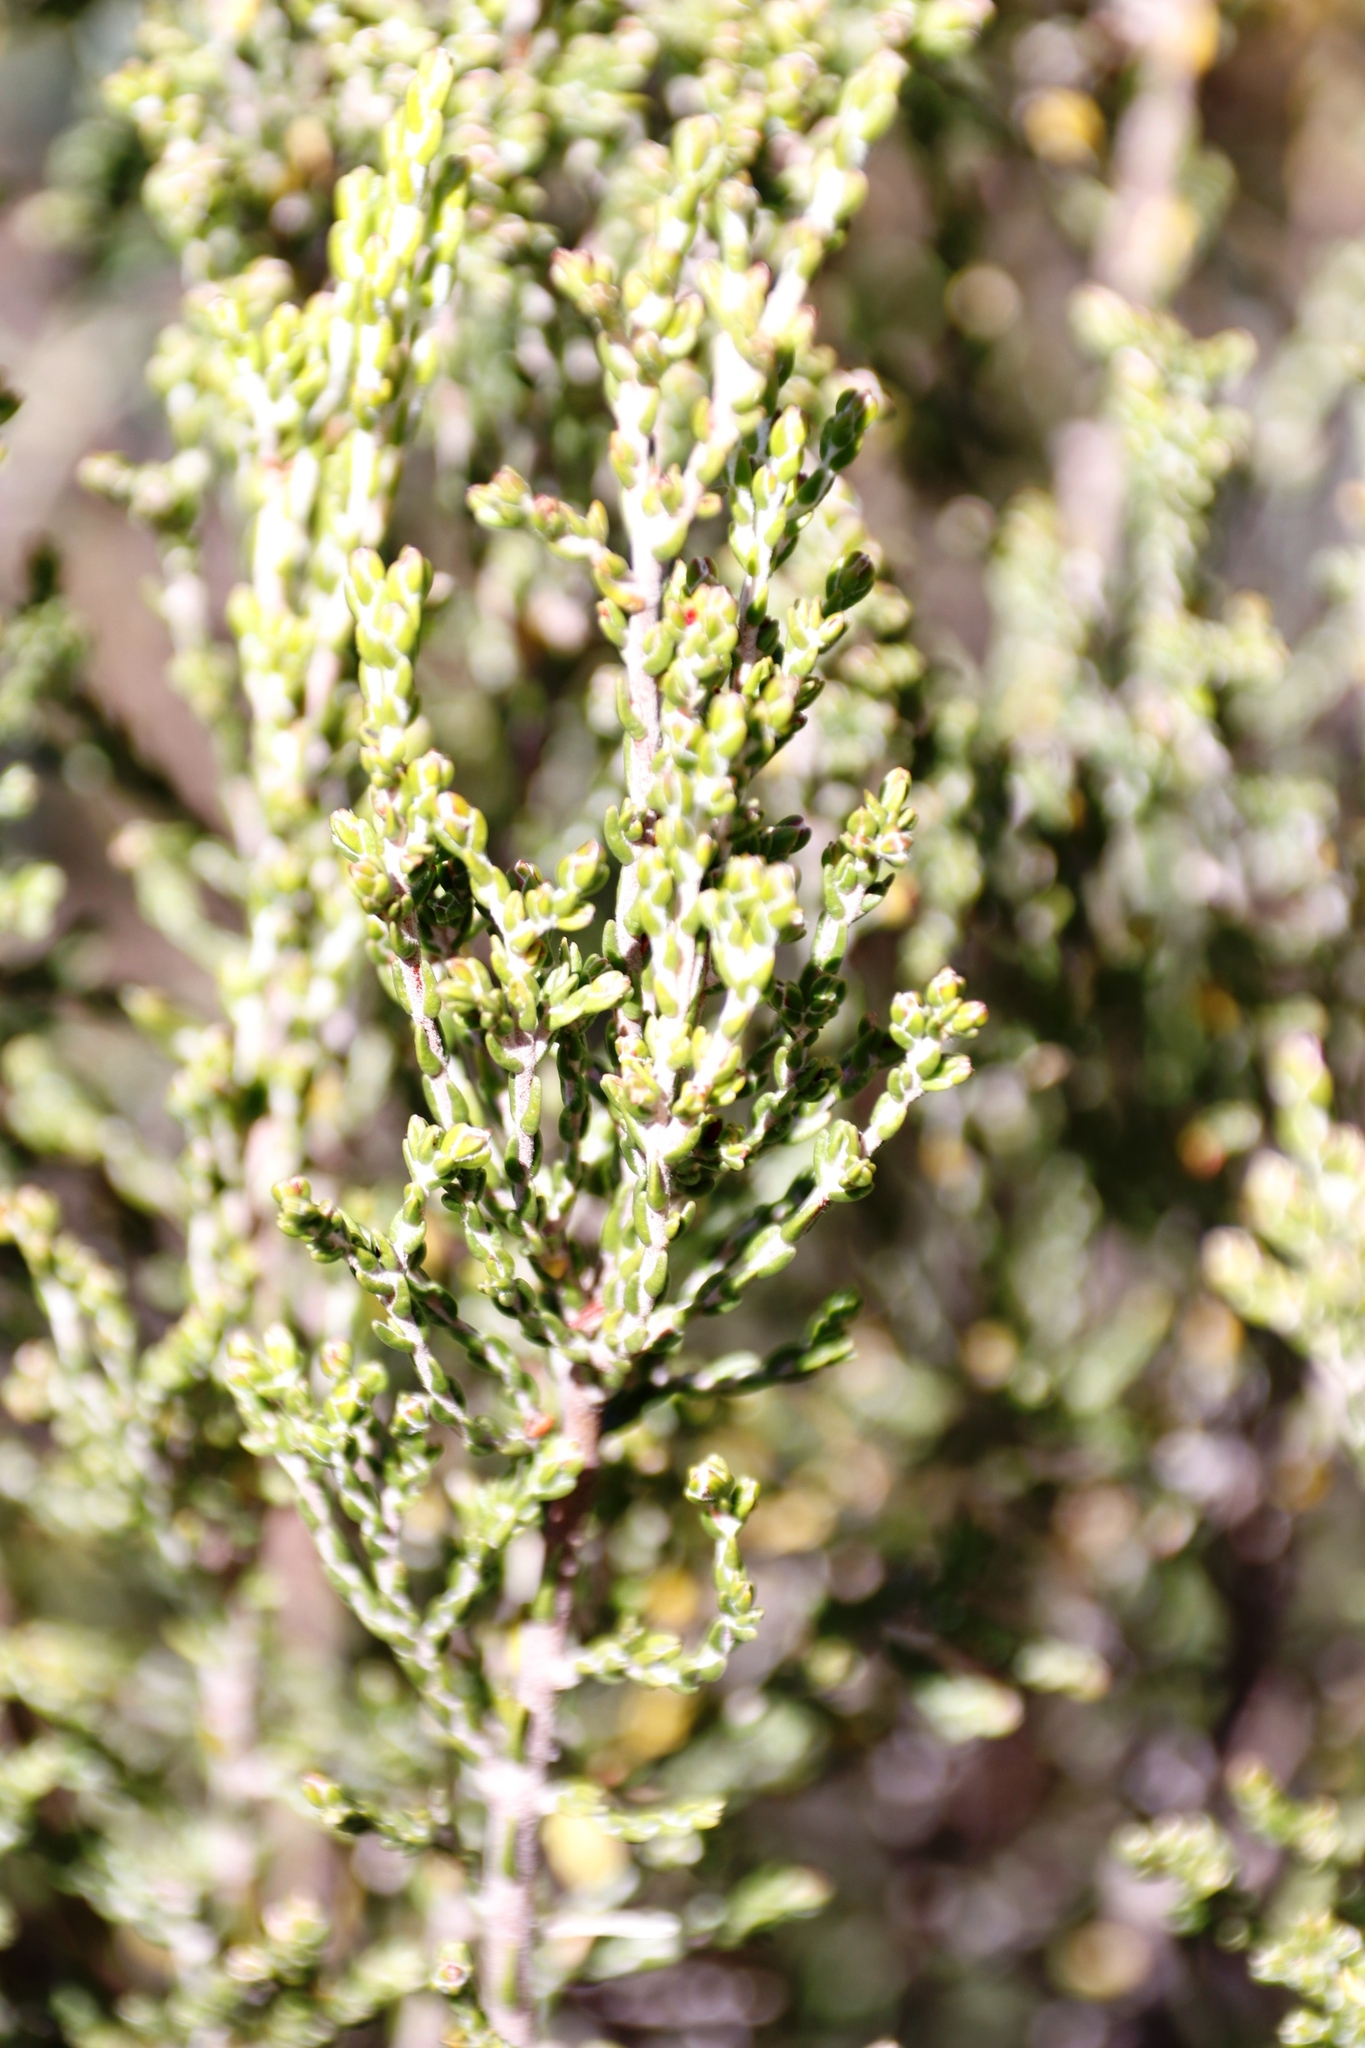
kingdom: Plantae
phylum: Tracheophyta
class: Magnoliopsida
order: Malvales
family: Thymelaeaceae
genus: Passerina
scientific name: Passerina montana
